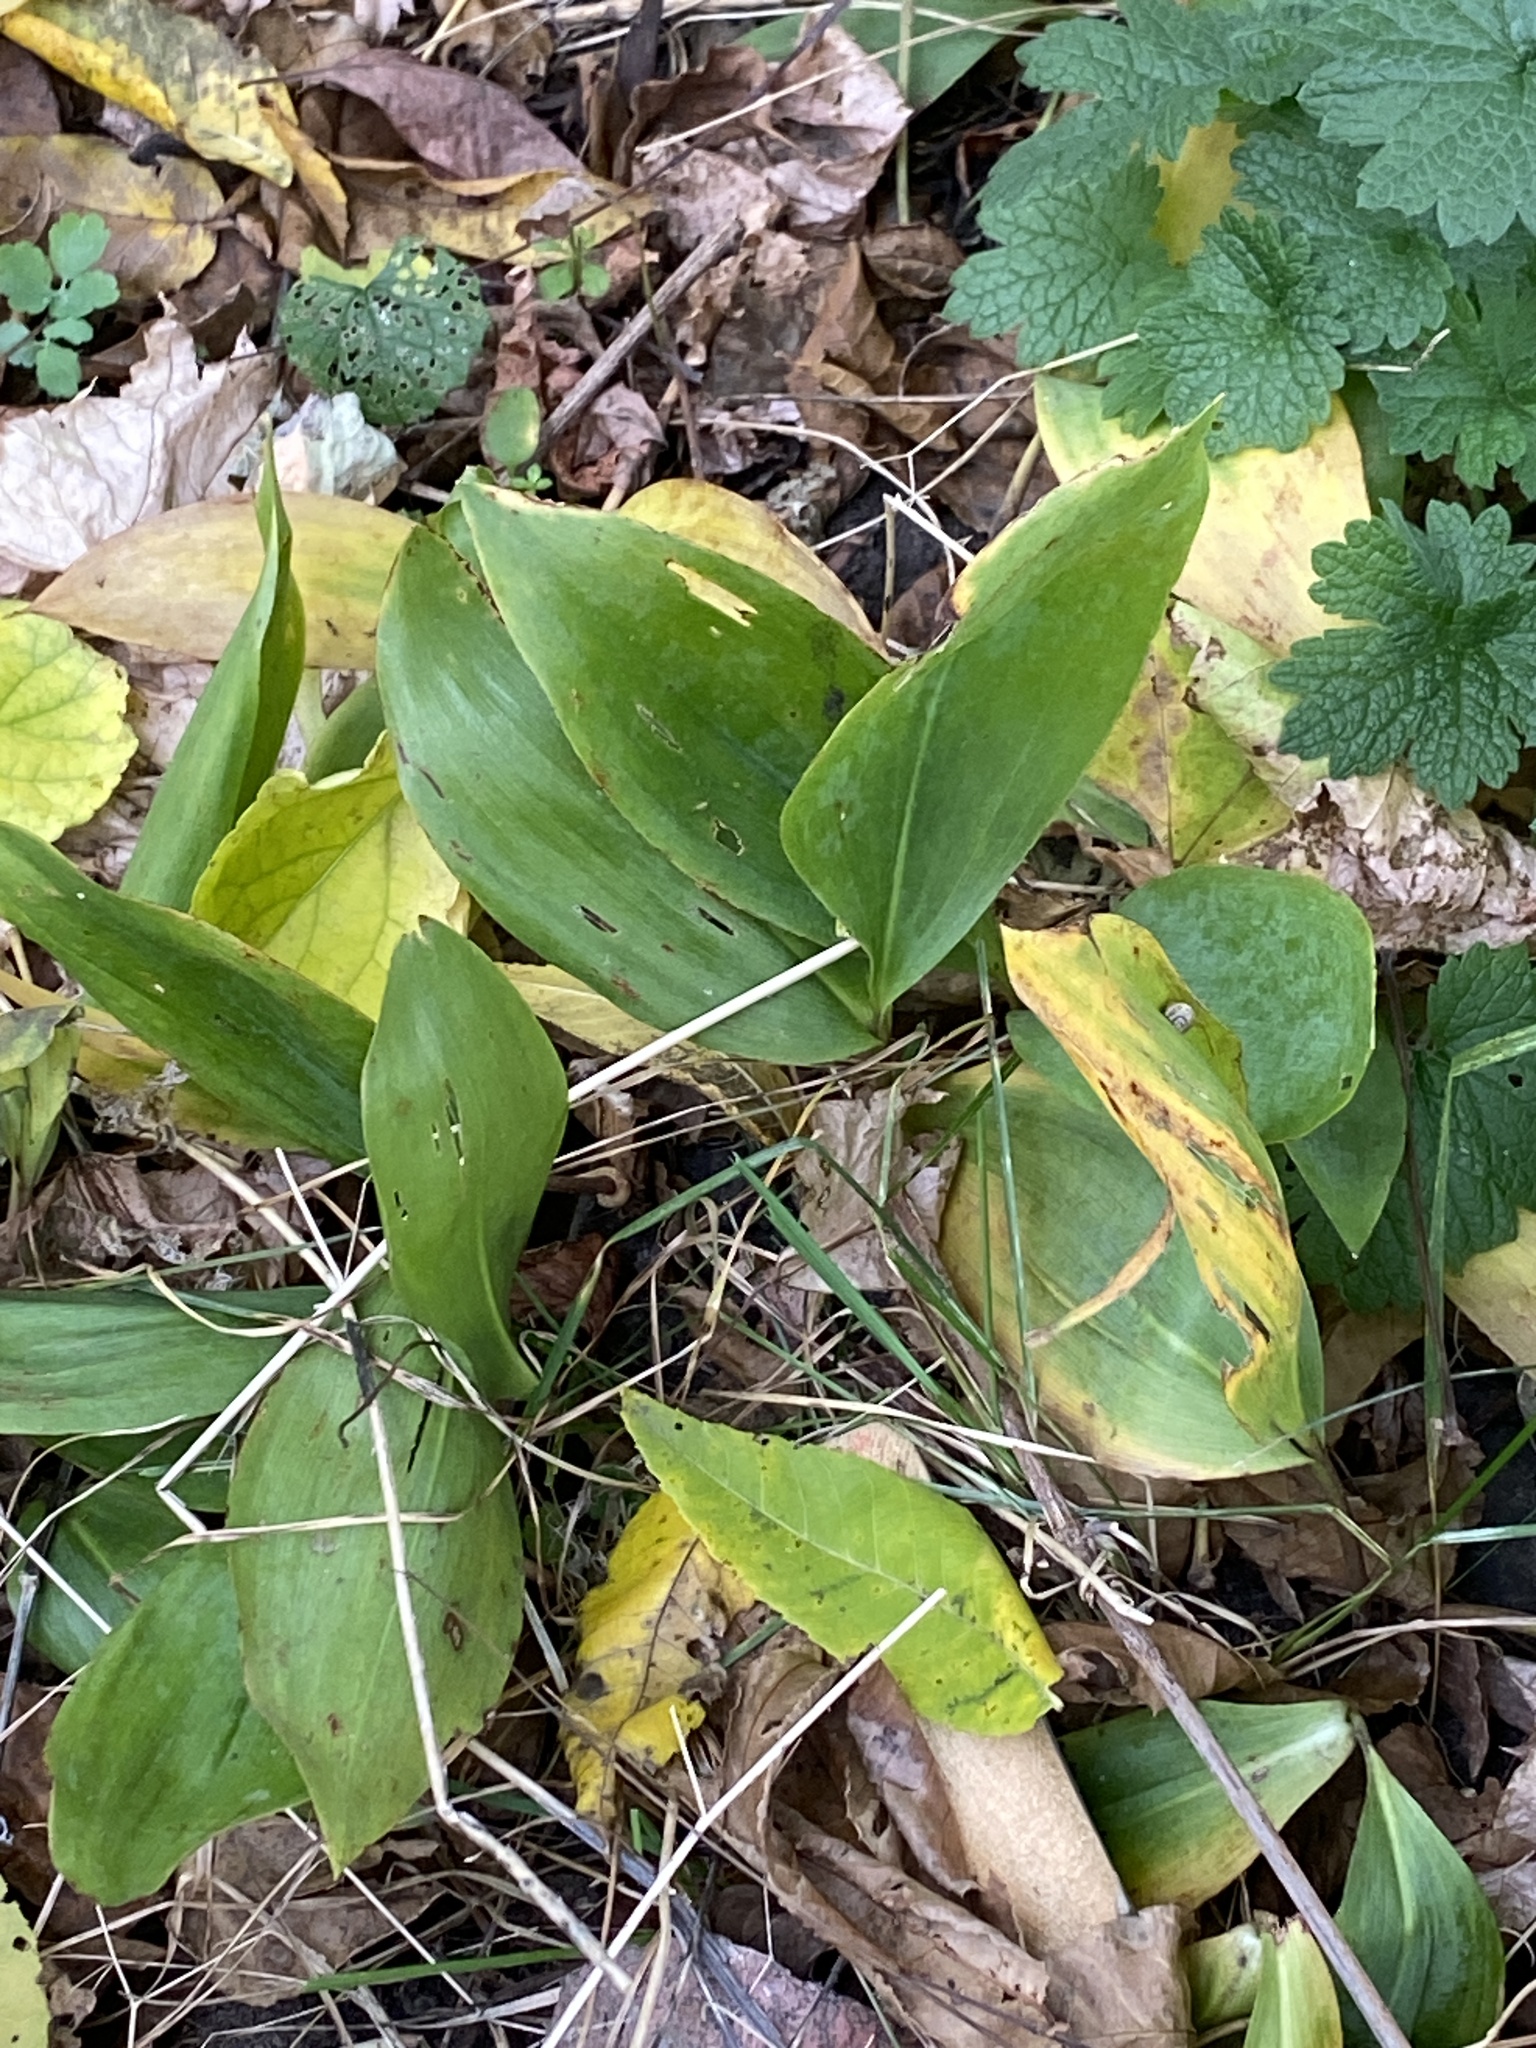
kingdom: Plantae
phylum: Tracheophyta
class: Liliopsida
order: Asparagales
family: Asparagaceae
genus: Convallaria
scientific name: Convallaria majalis
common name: Lily-of-the-valley
